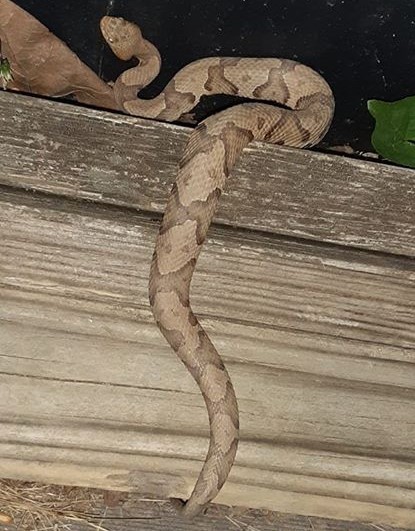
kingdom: Animalia
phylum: Chordata
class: Squamata
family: Viperidae
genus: Agkistrodon
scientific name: Agkistrodon contortrix
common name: Northern copperhead
